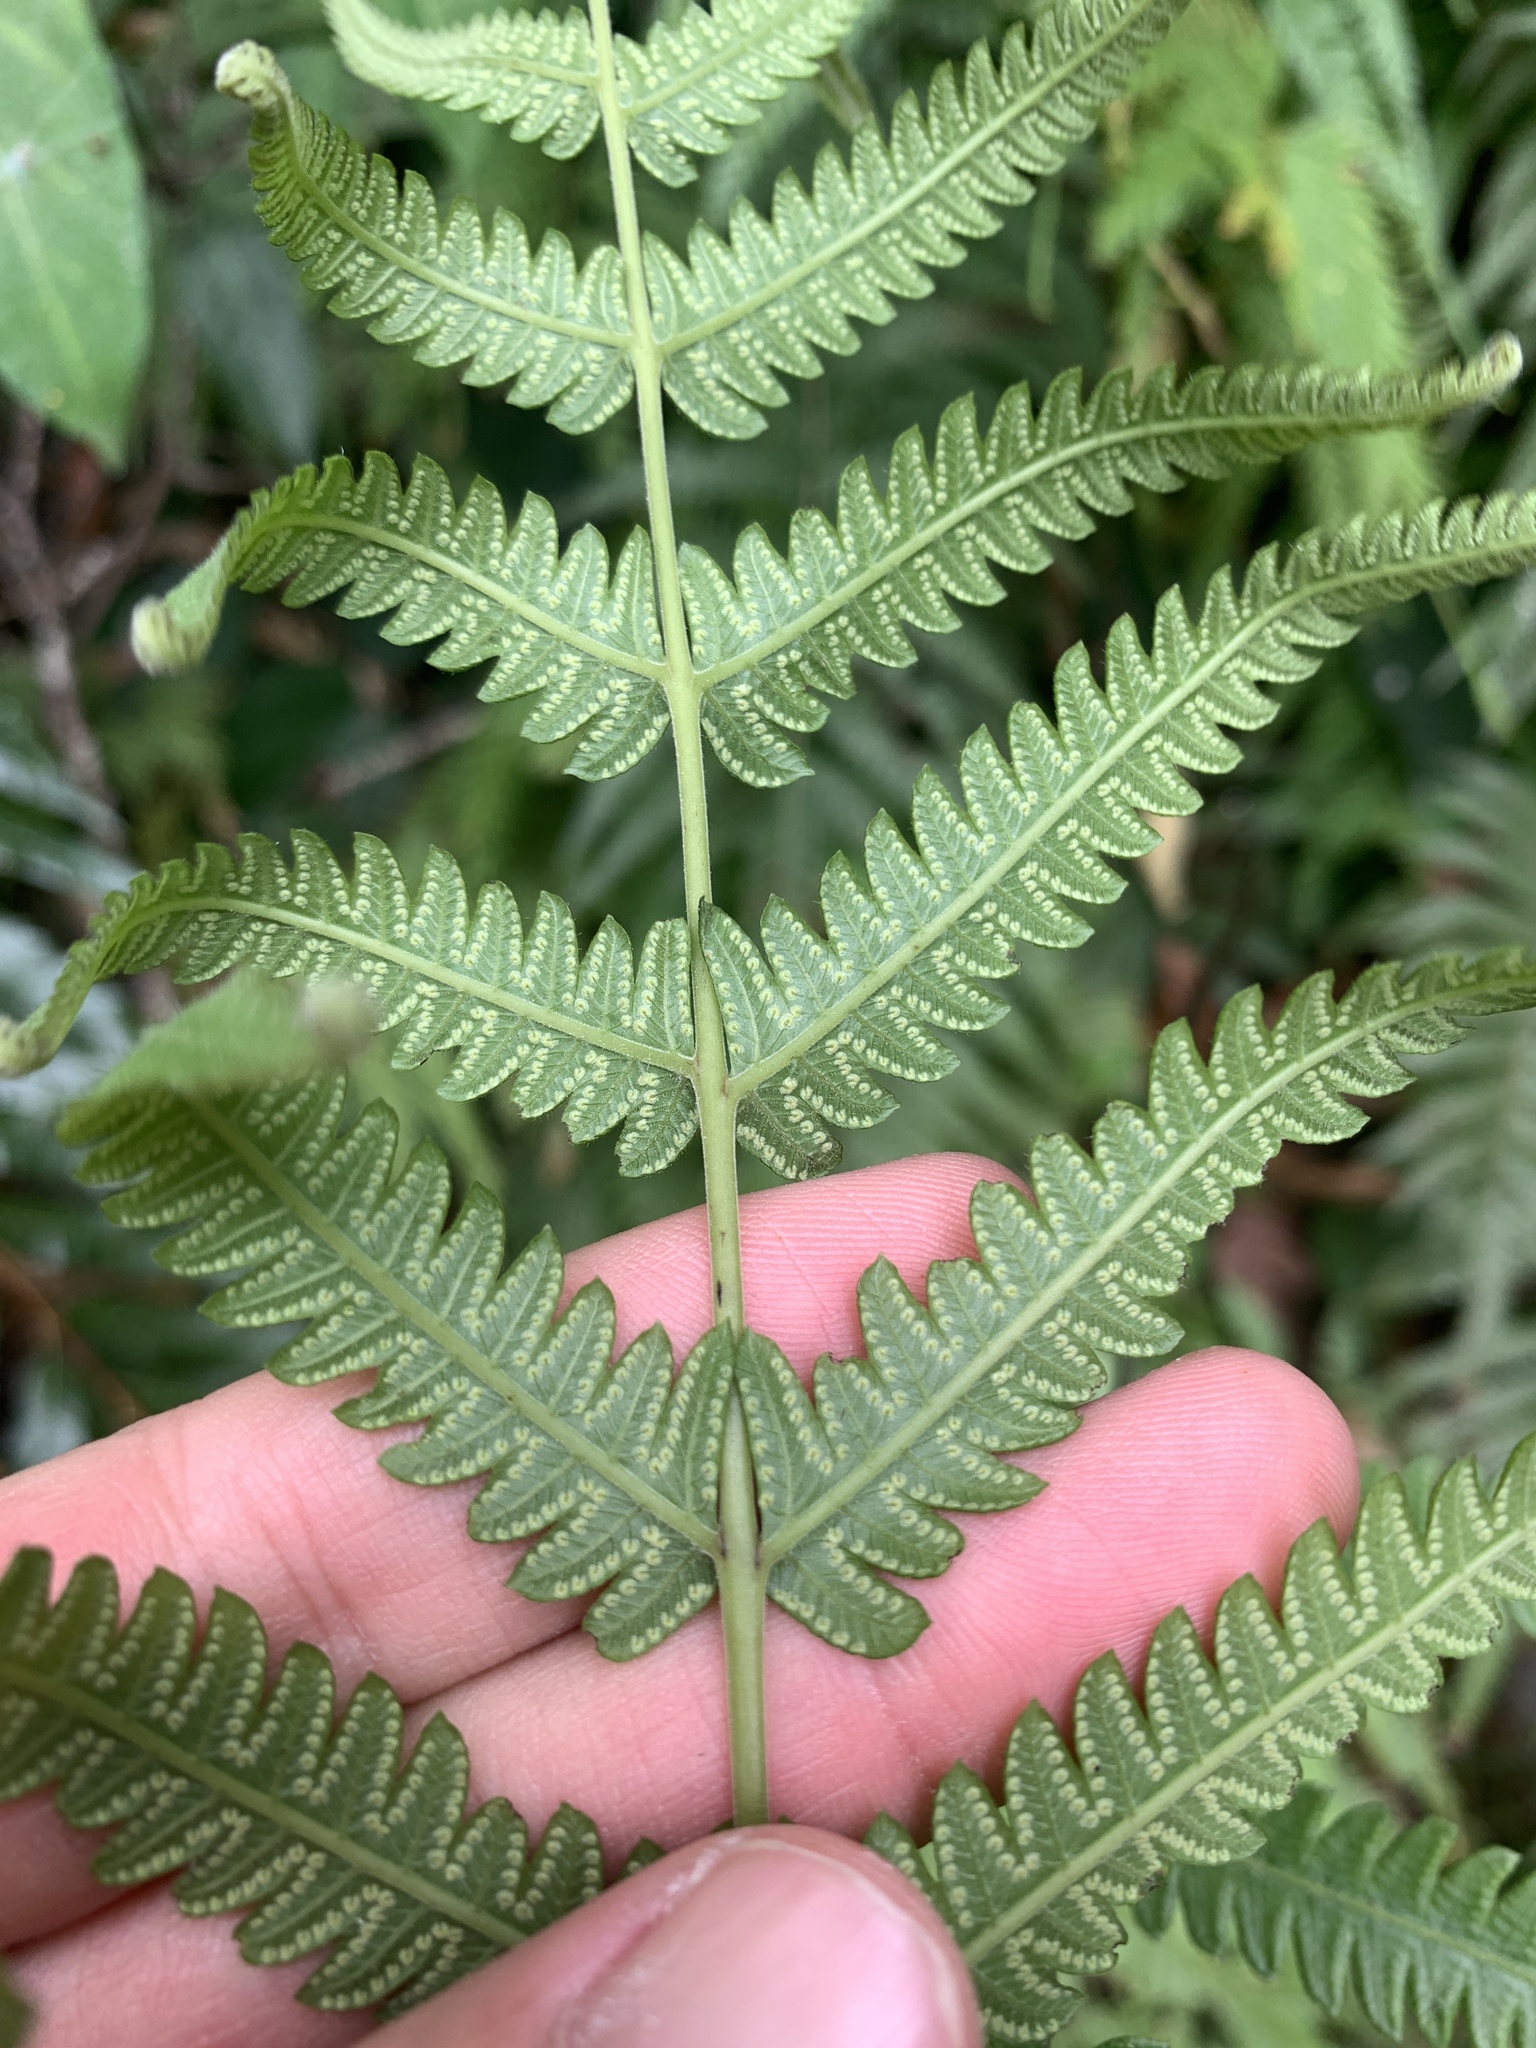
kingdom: Plantae
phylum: Tracheophyta
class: Polypodiopsida
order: Polypodiales
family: Thelypteridaceae
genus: Christella
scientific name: Christella acuminata
